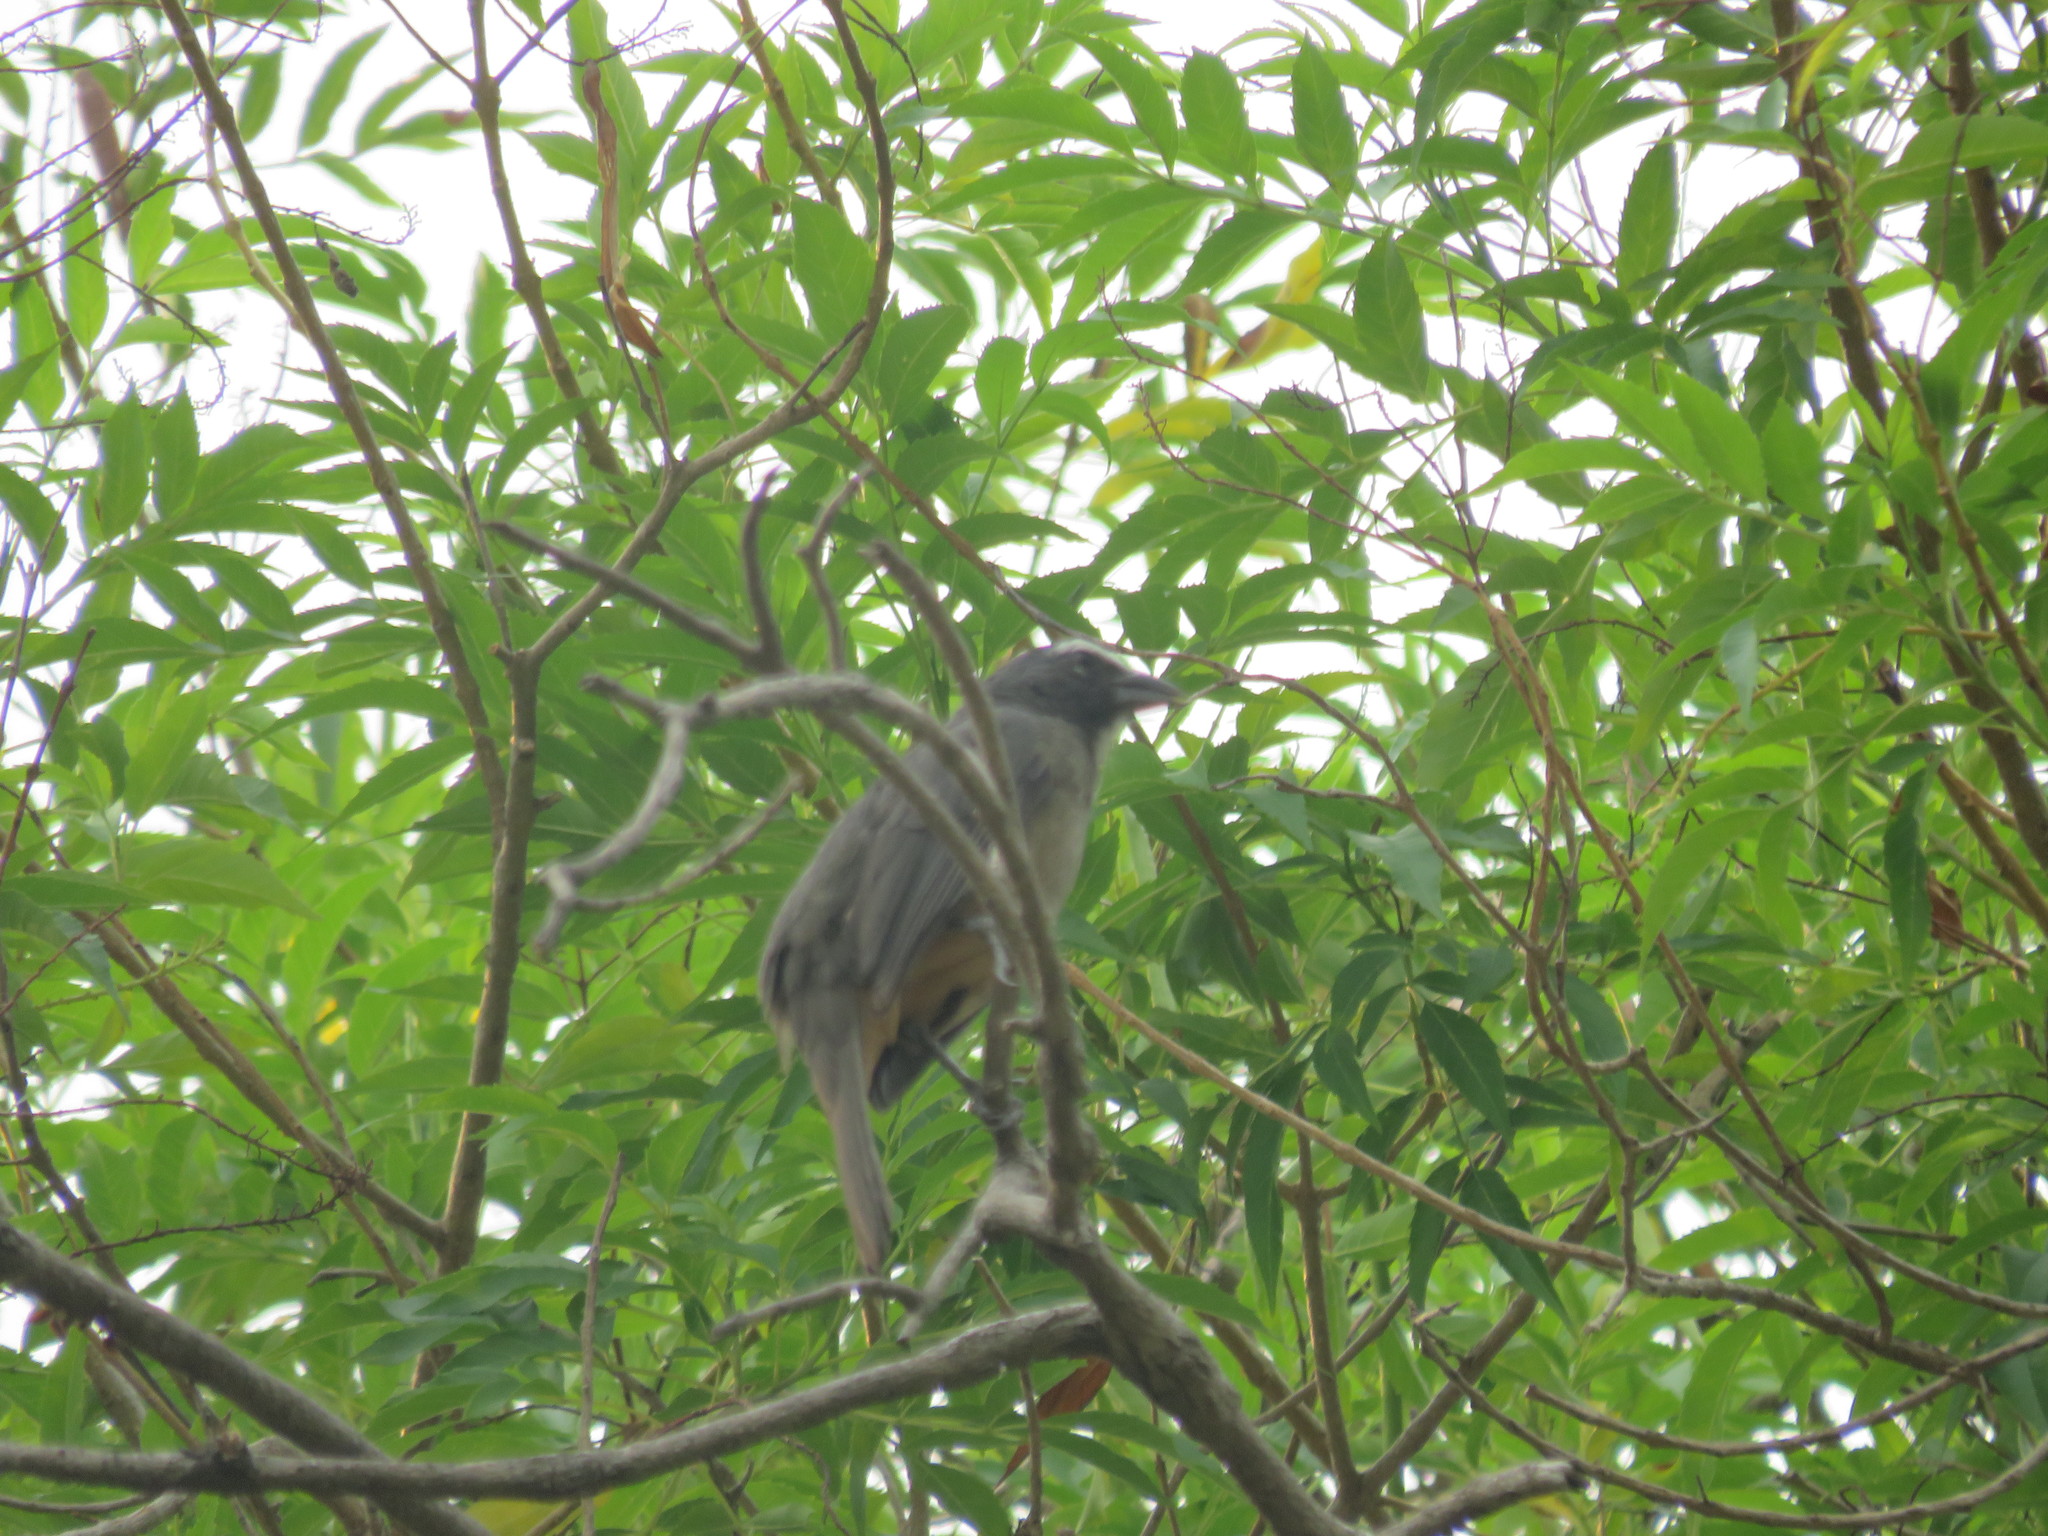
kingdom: Animalia
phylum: Chordata
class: Aves
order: Passeriformes
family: Thraupidae
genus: Saltator
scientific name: Saltator grandis
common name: Cinnamon-bellied saltator
